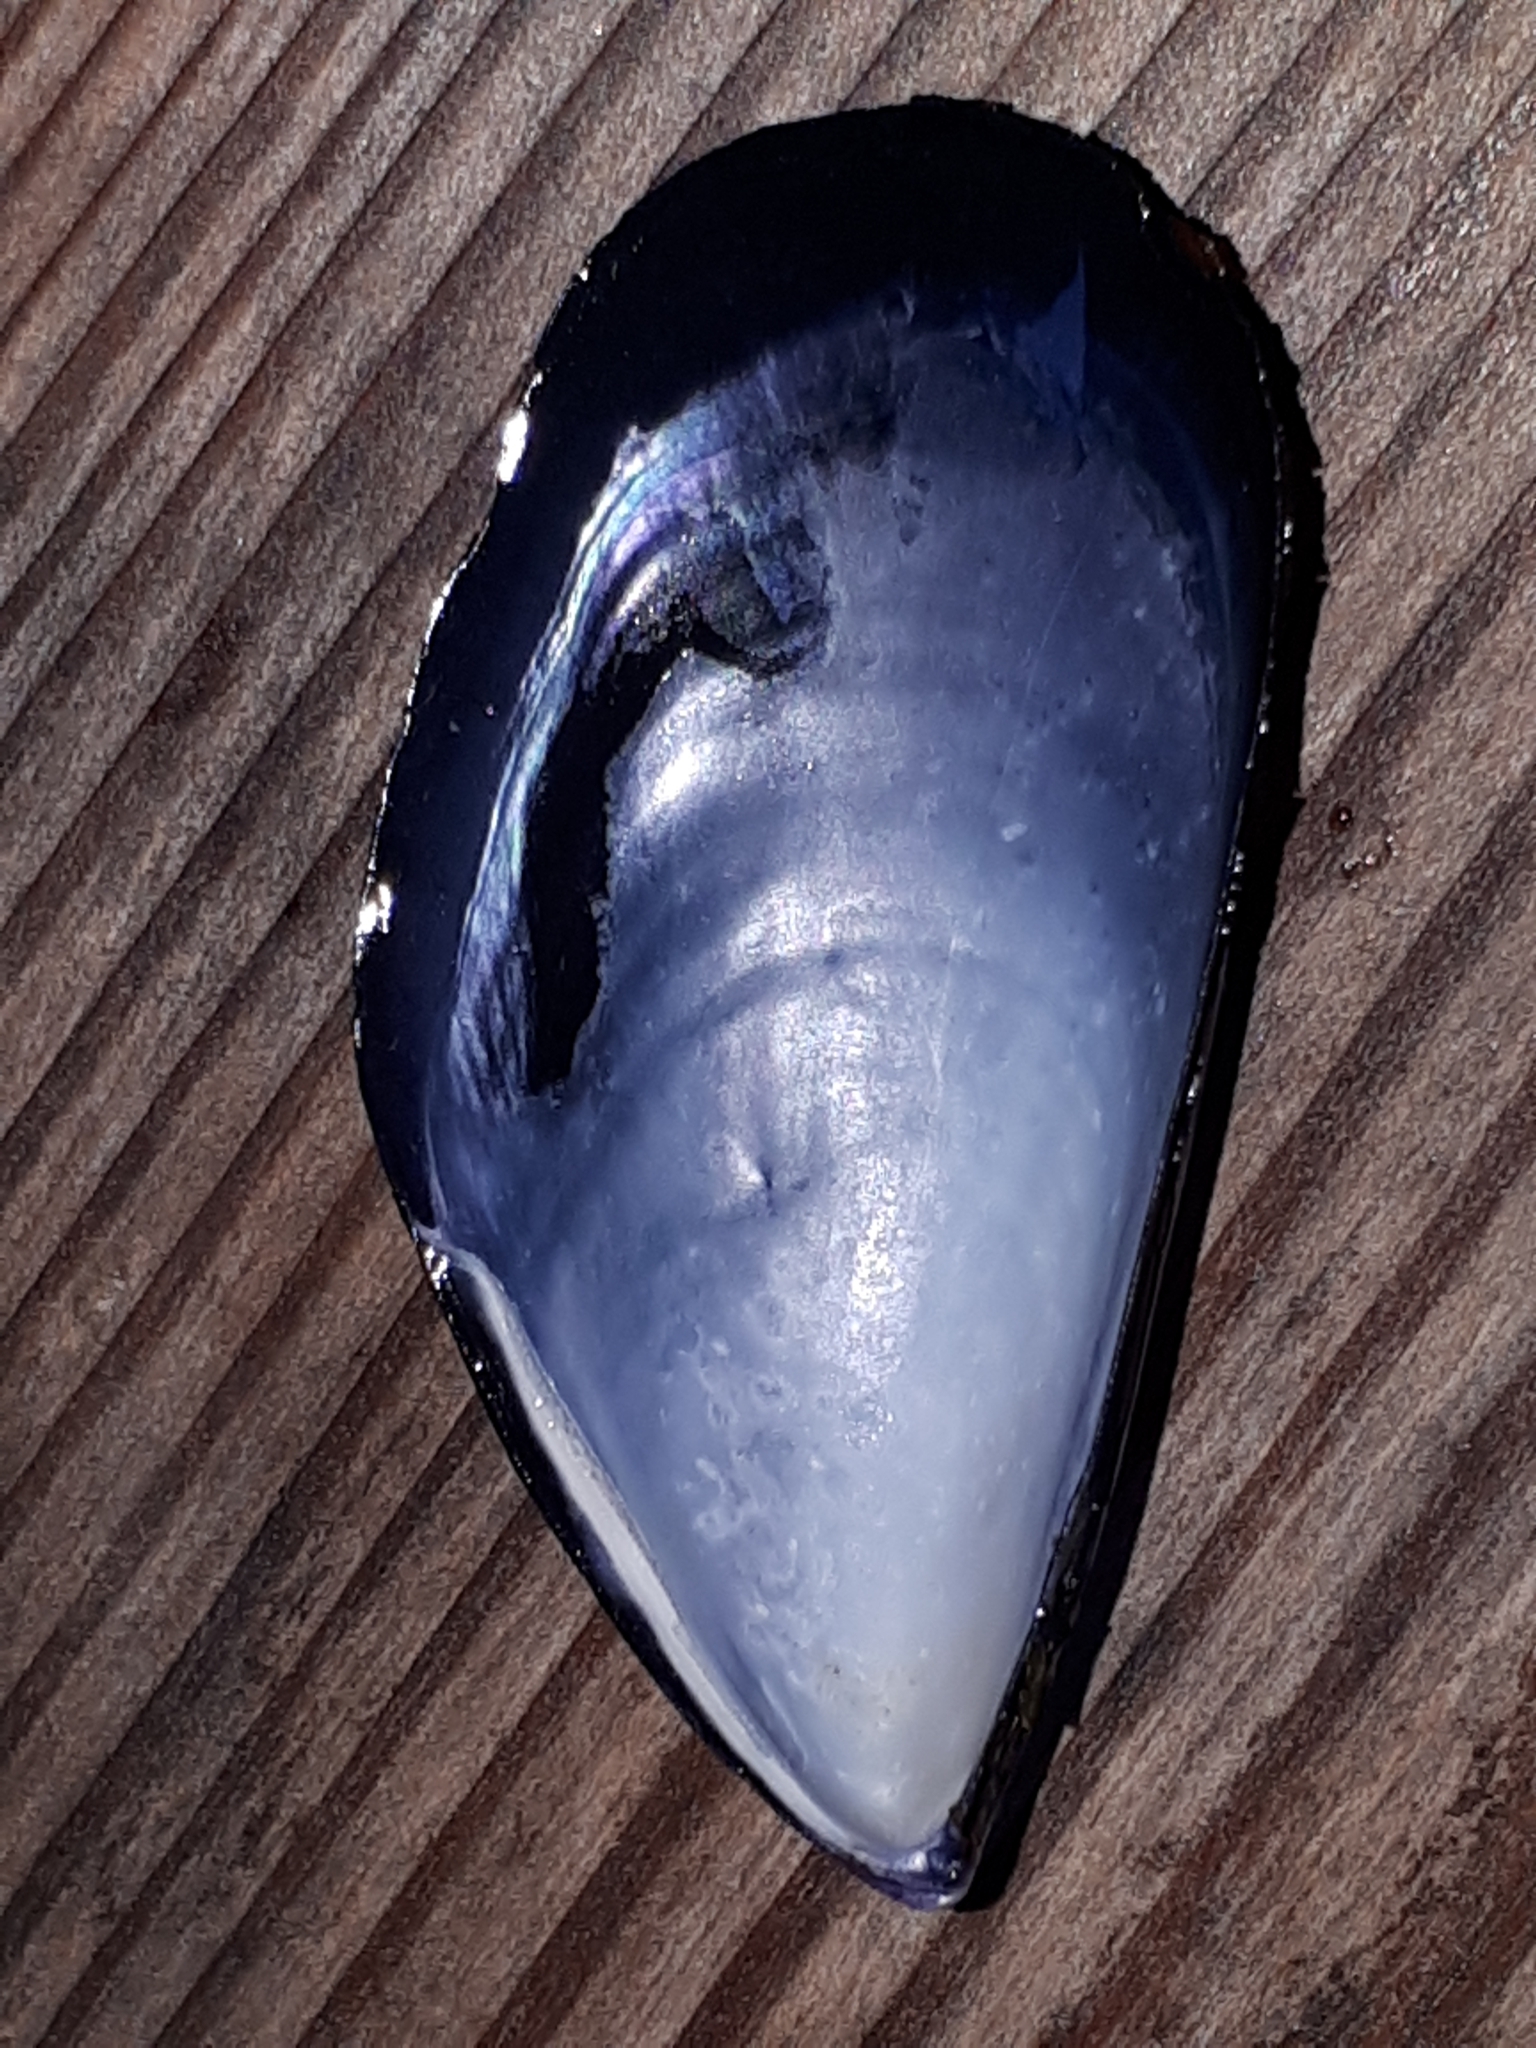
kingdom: Animalia
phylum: Mollusca
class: Bivalvia
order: Mytilida
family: Mytilidae
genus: Mytilus
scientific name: Mytilus galloprovincialis
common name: Mediterranean mussel
